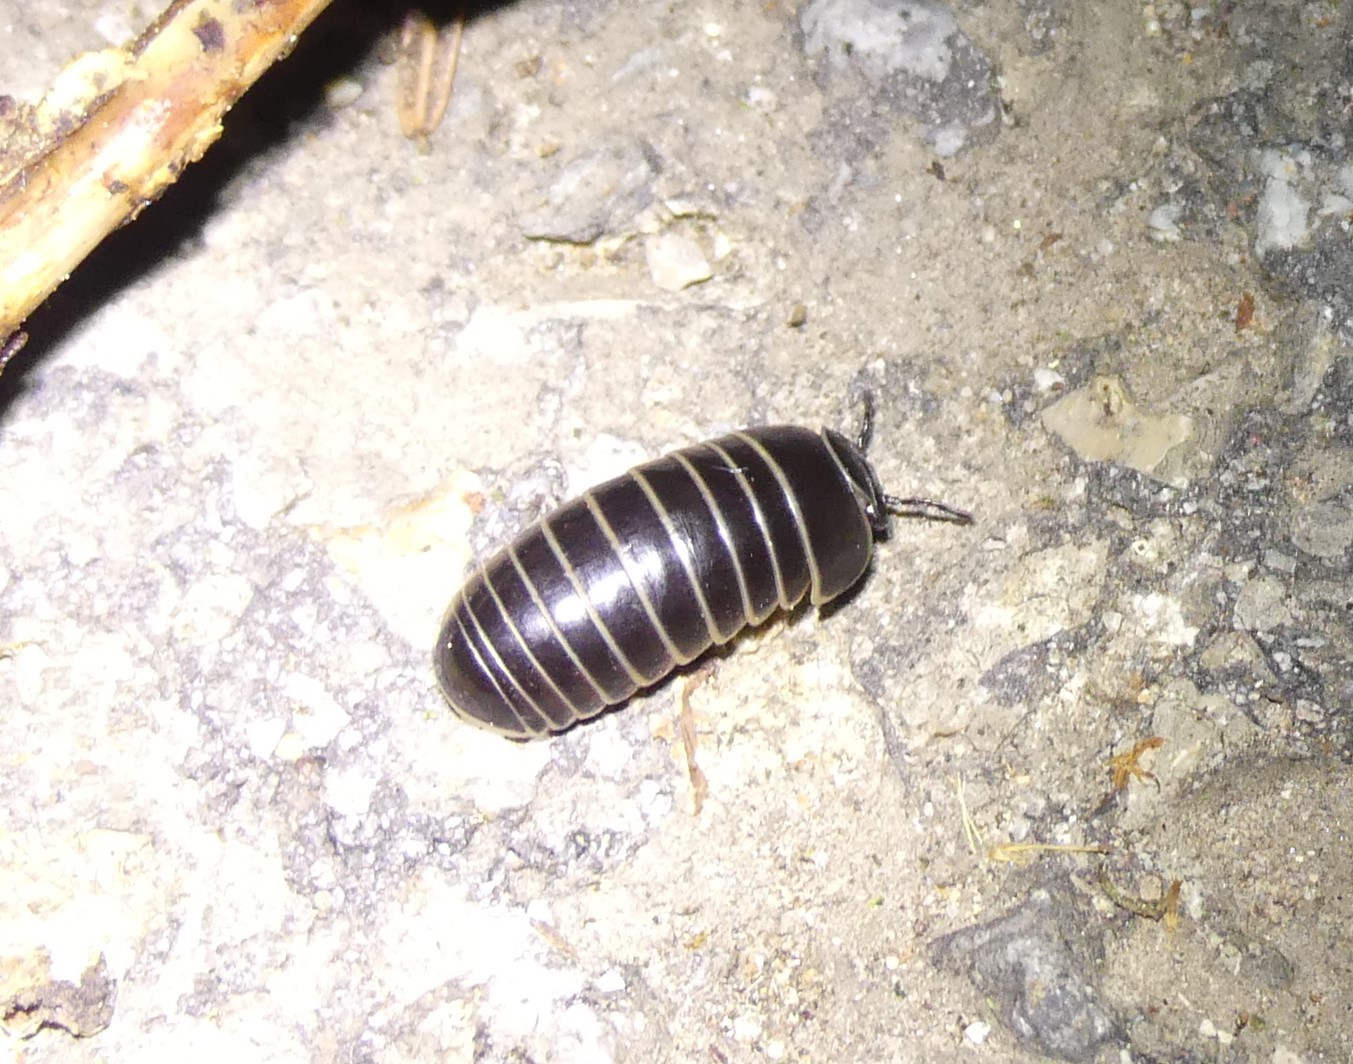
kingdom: Animalia
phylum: Arthropoda
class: Diplopoda
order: Glomerida
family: Glomeridae
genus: Glomeris
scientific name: Glomeris marginata
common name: Bordered pill millipede
